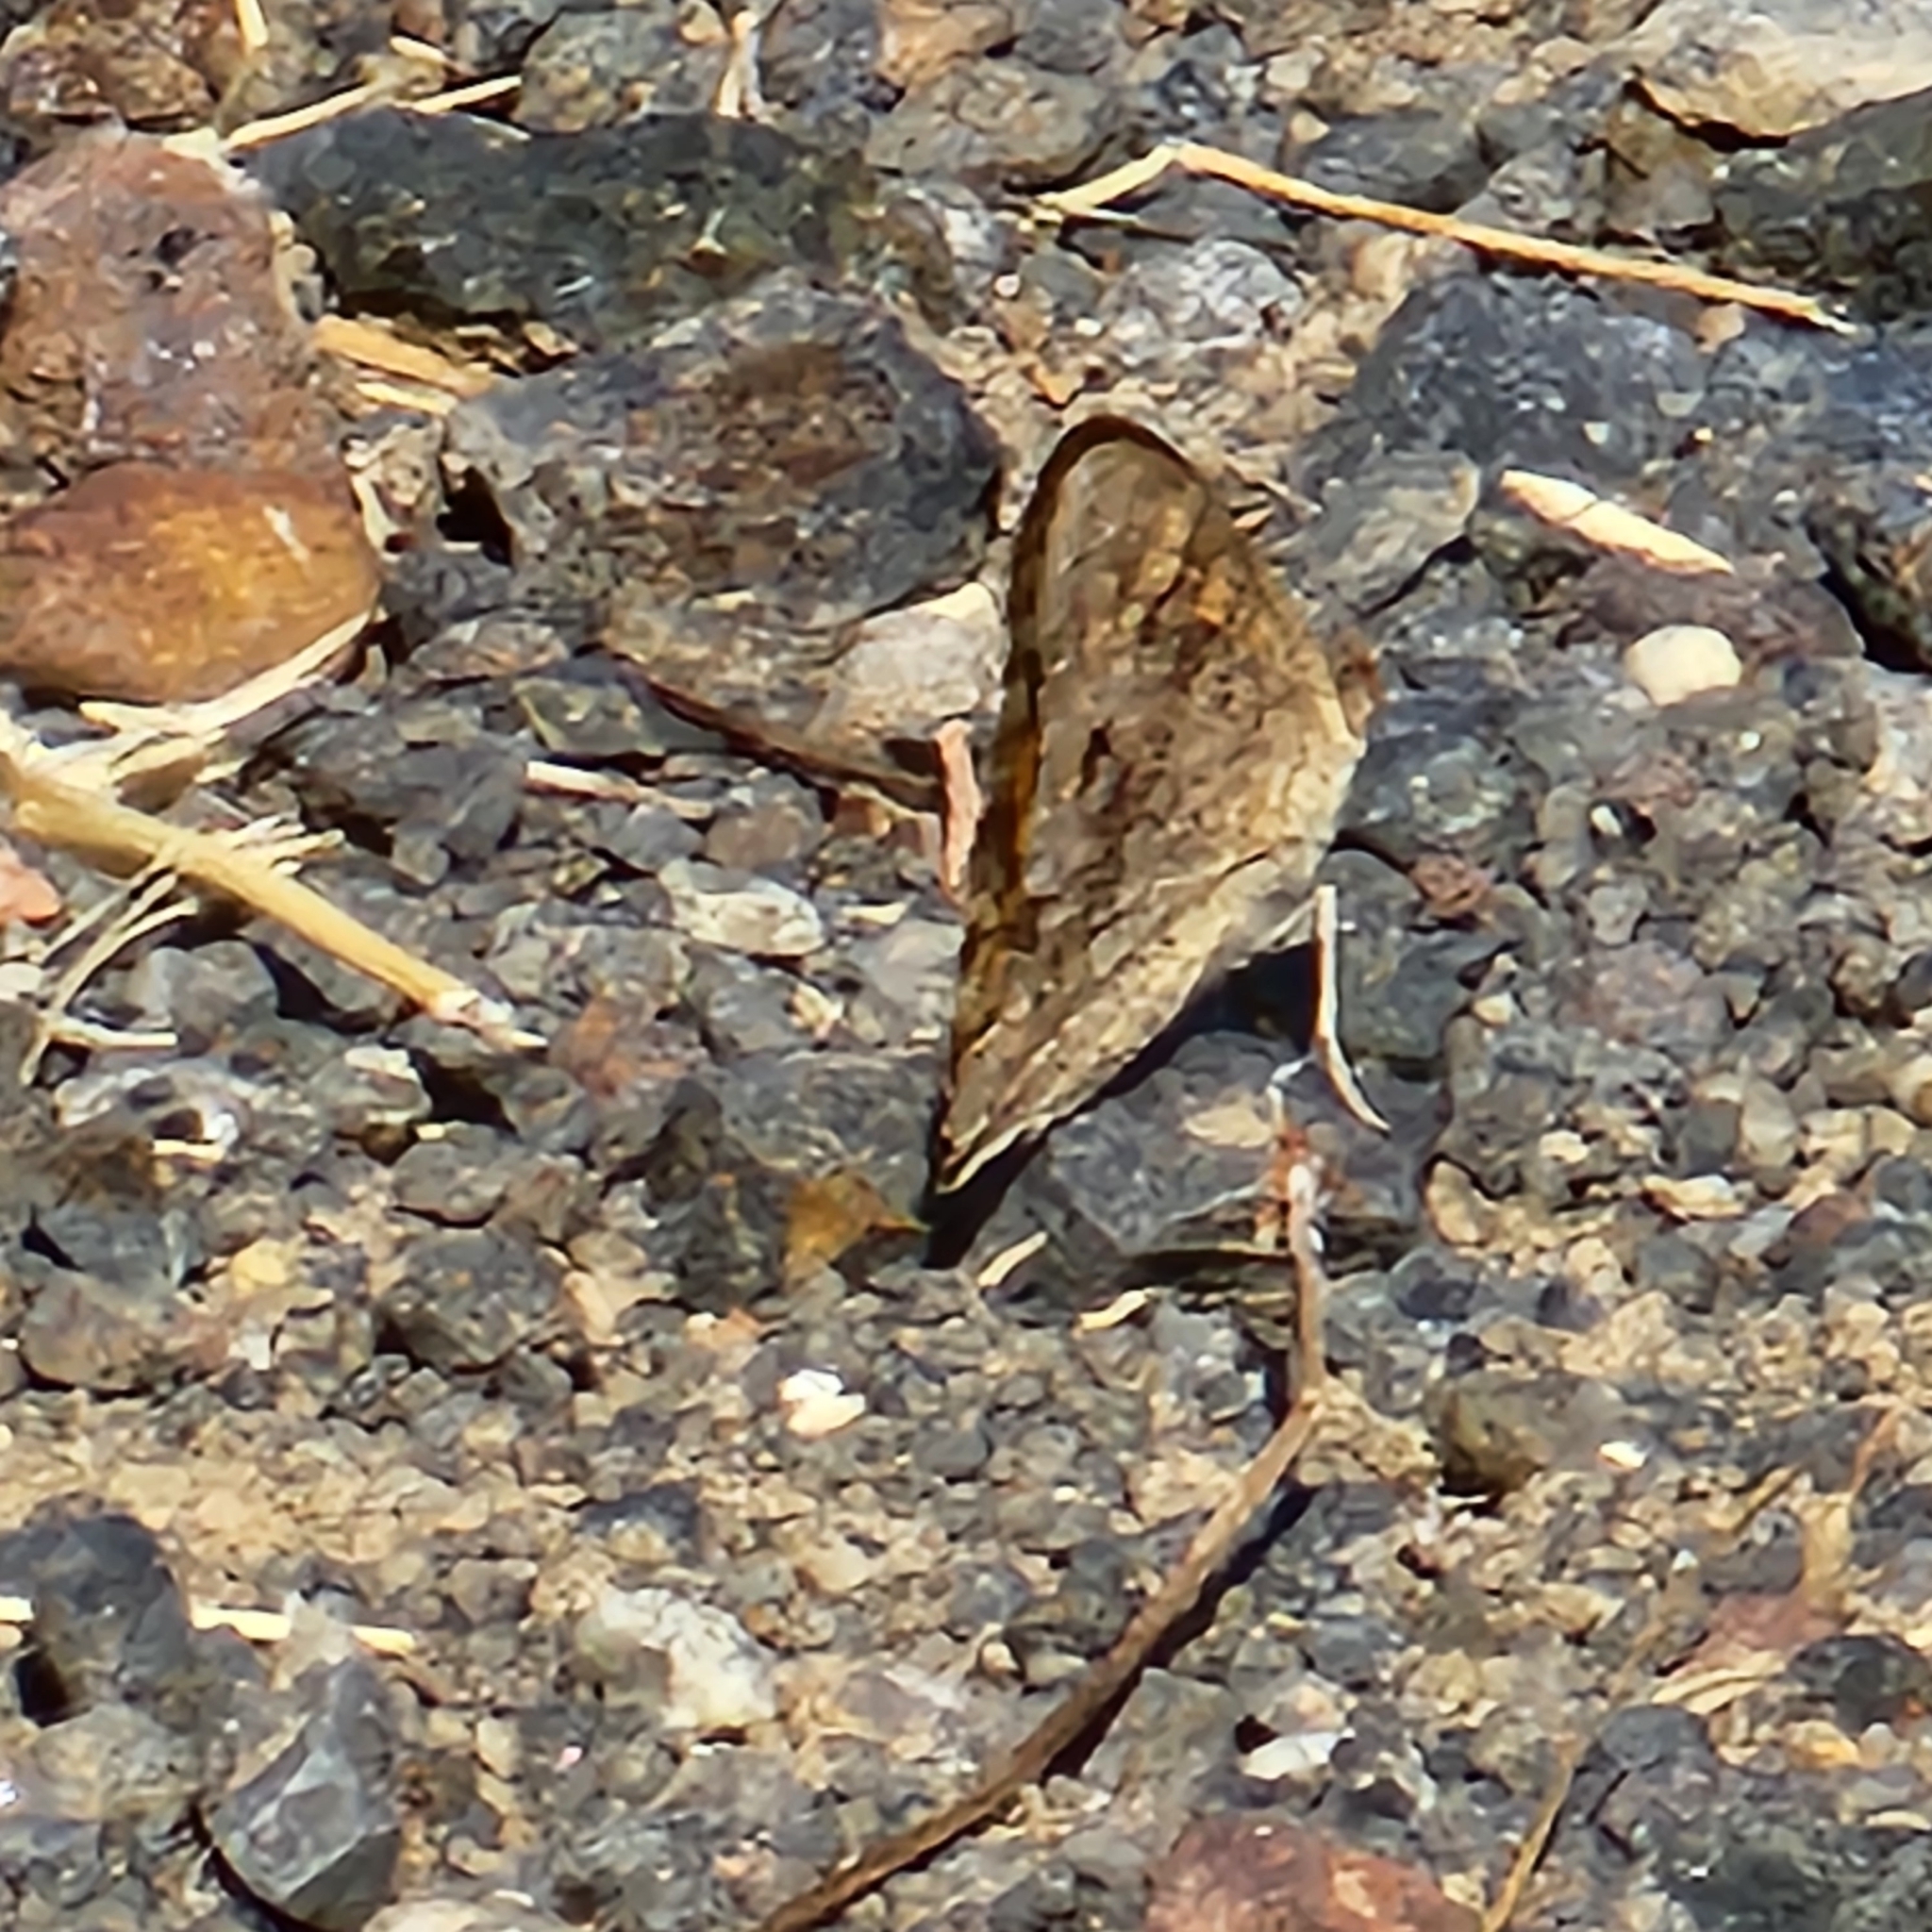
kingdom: Animalia
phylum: Arthropoda
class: Insecta
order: Lepidoptera
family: Nymphalidae
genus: Junonia
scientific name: Junonia villida
